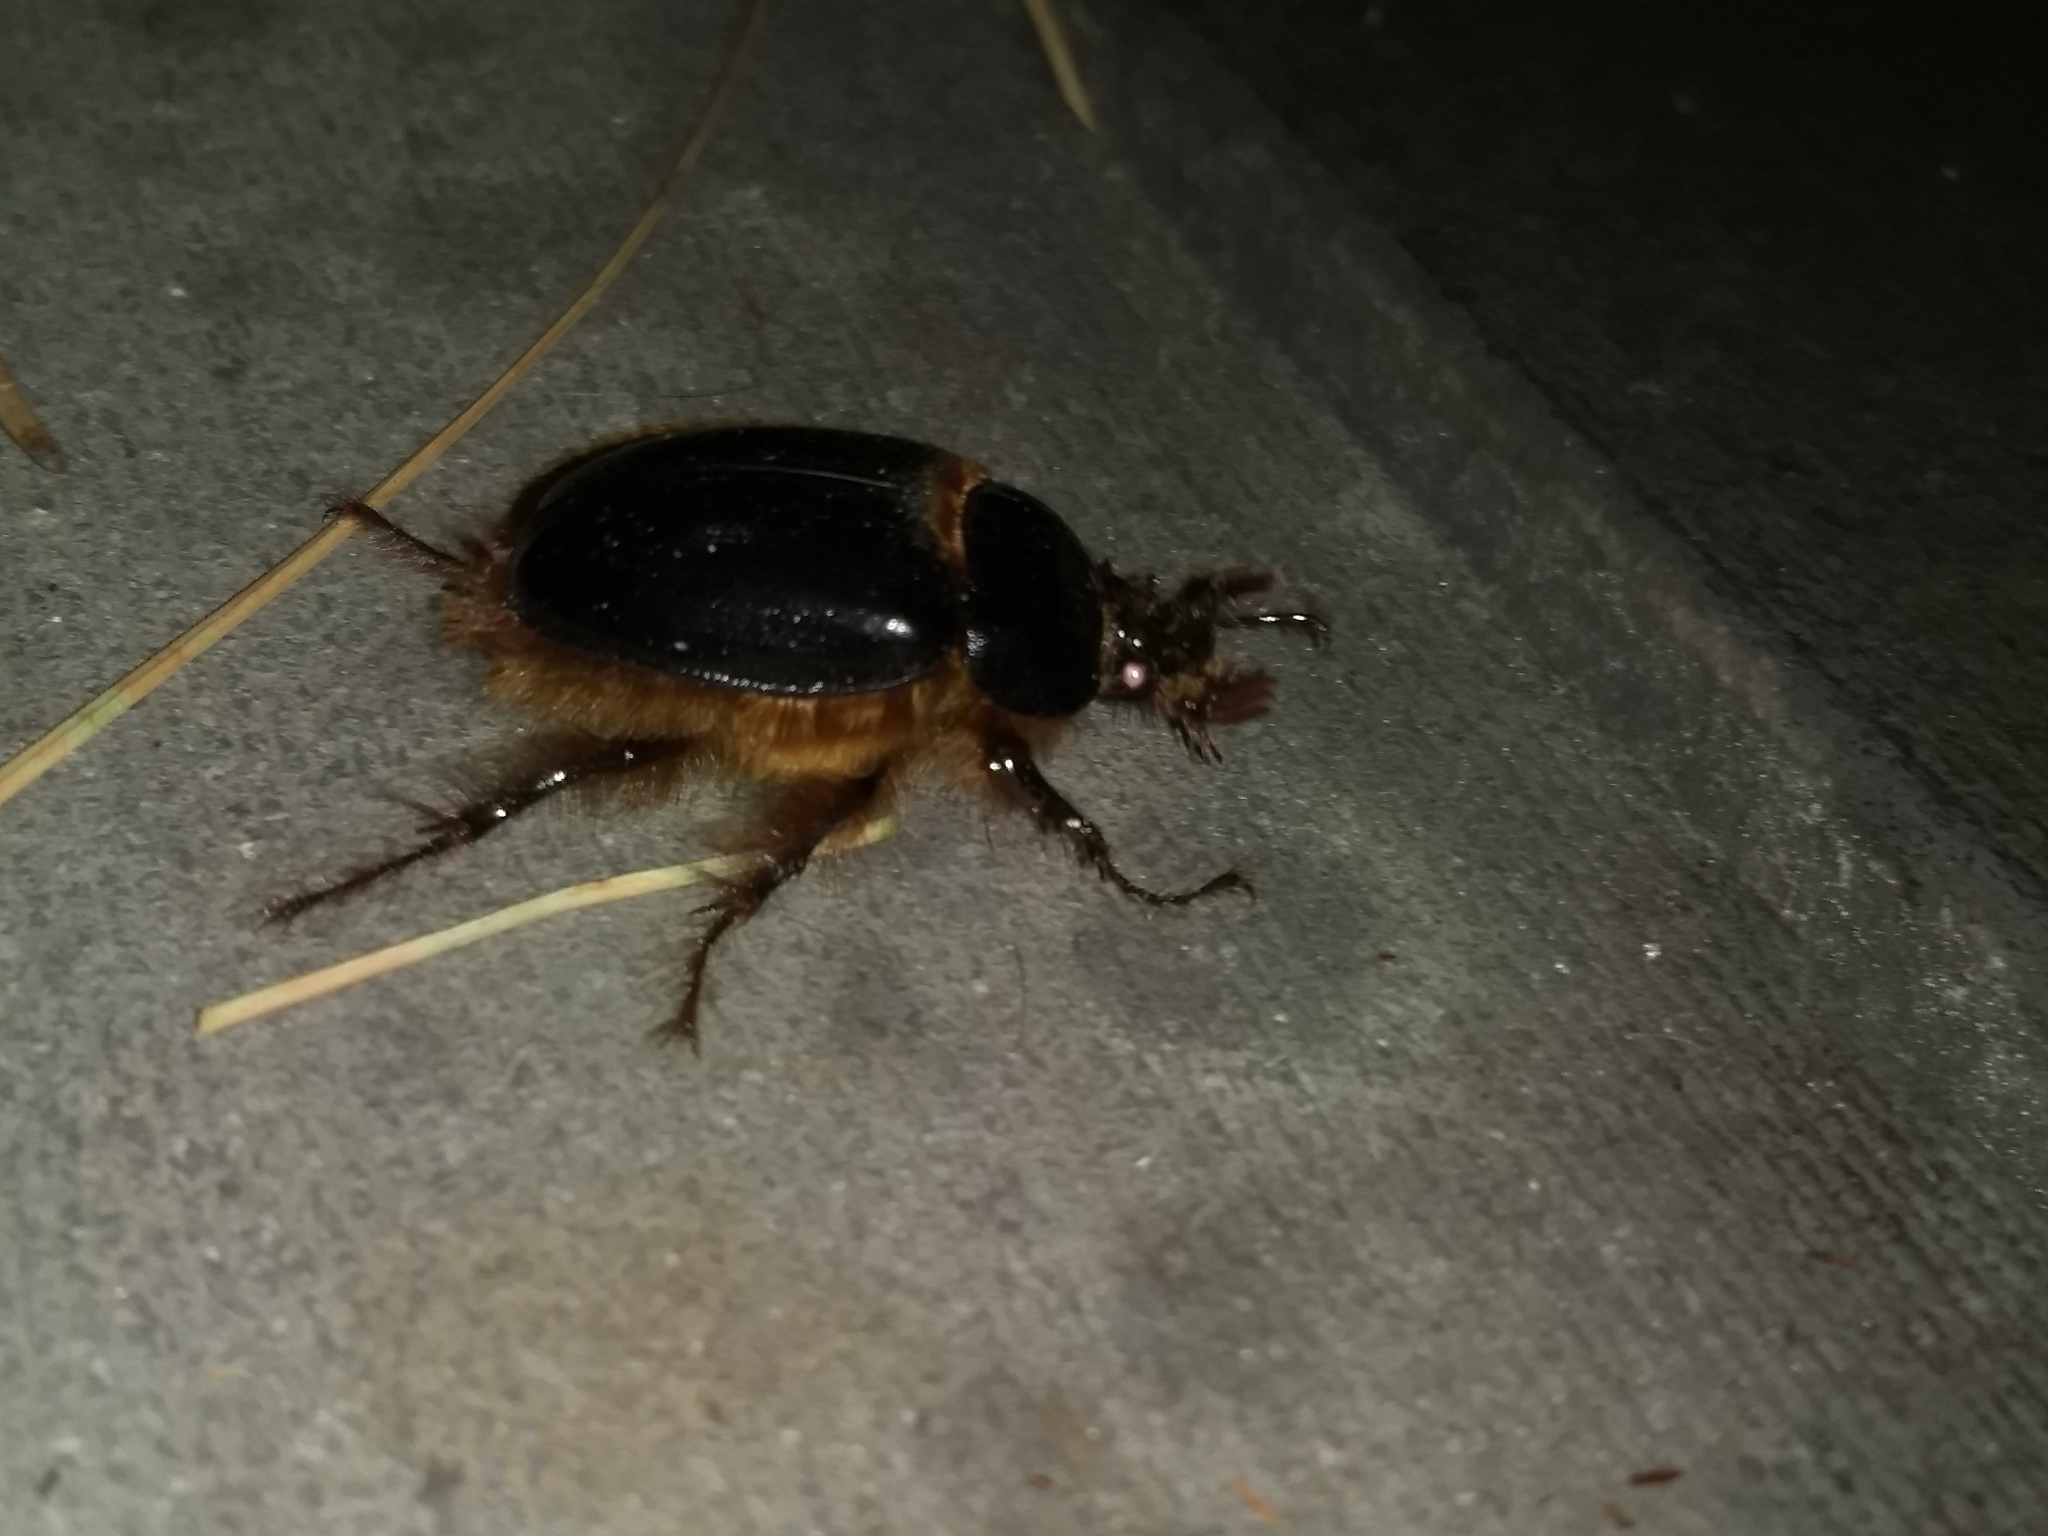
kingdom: Animalia
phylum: Arthropoda
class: Insecta
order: Coleoptera
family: Pleocomidae
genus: Pleocoma
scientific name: Pleocoma fimbriata
